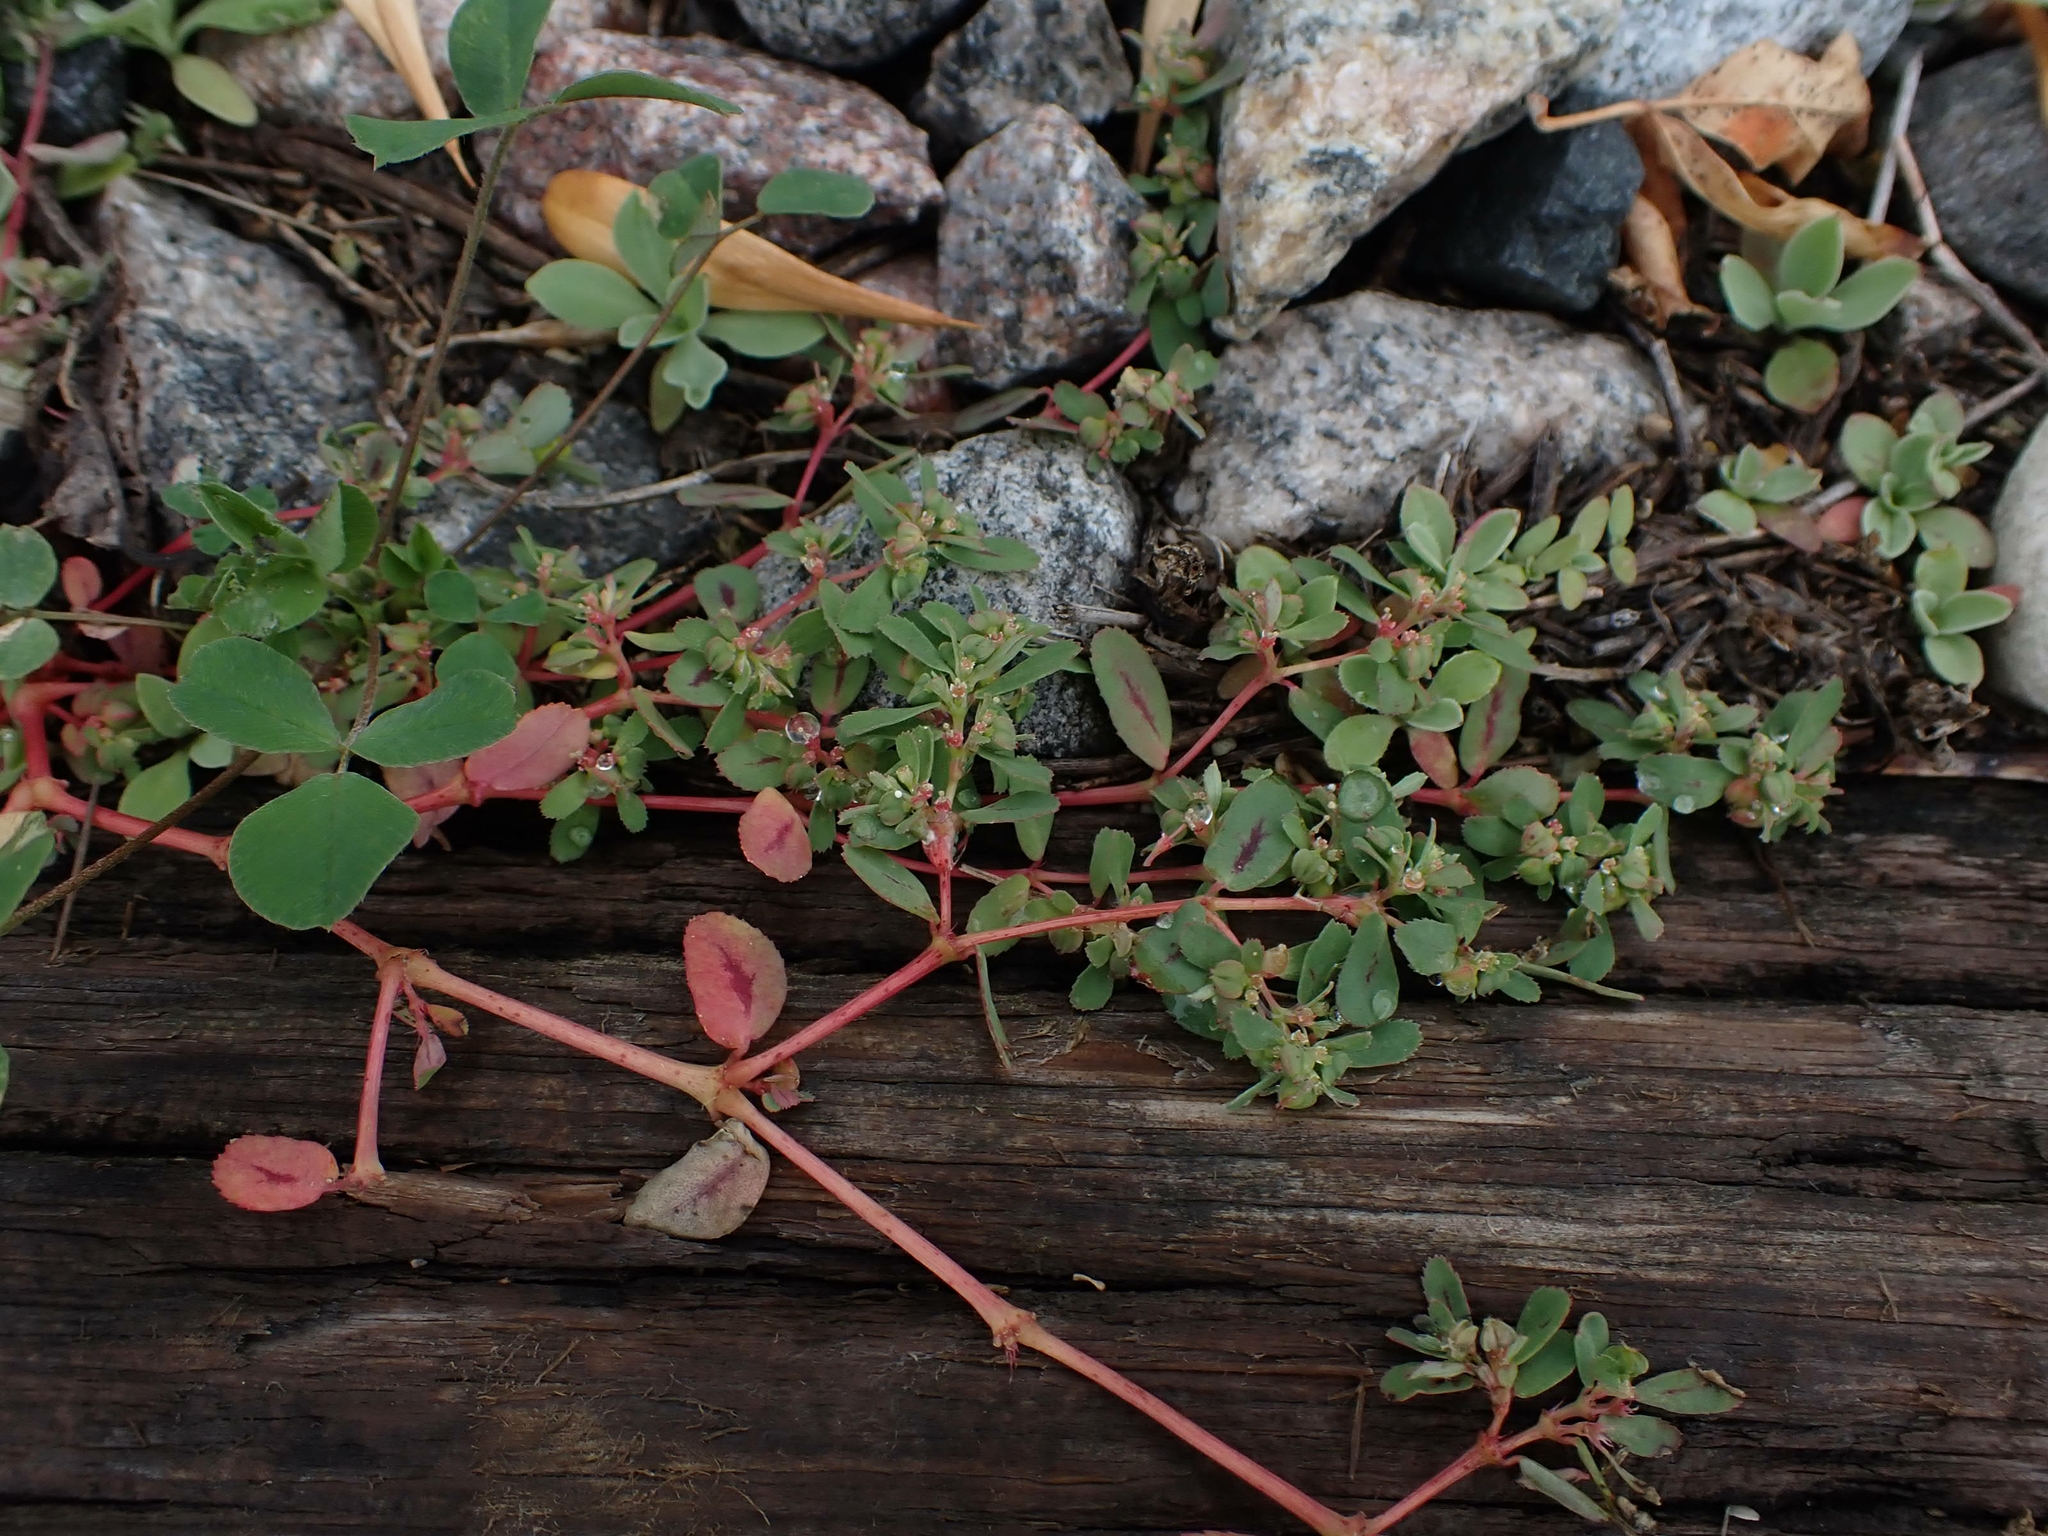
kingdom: Plantae
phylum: Tracheophyta
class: Magnoliopsida
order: Malpighiales
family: Euphorbiaceae
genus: Euphorbia
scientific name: Euphorbia serpillifolia
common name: Thyme-leaf spurge
